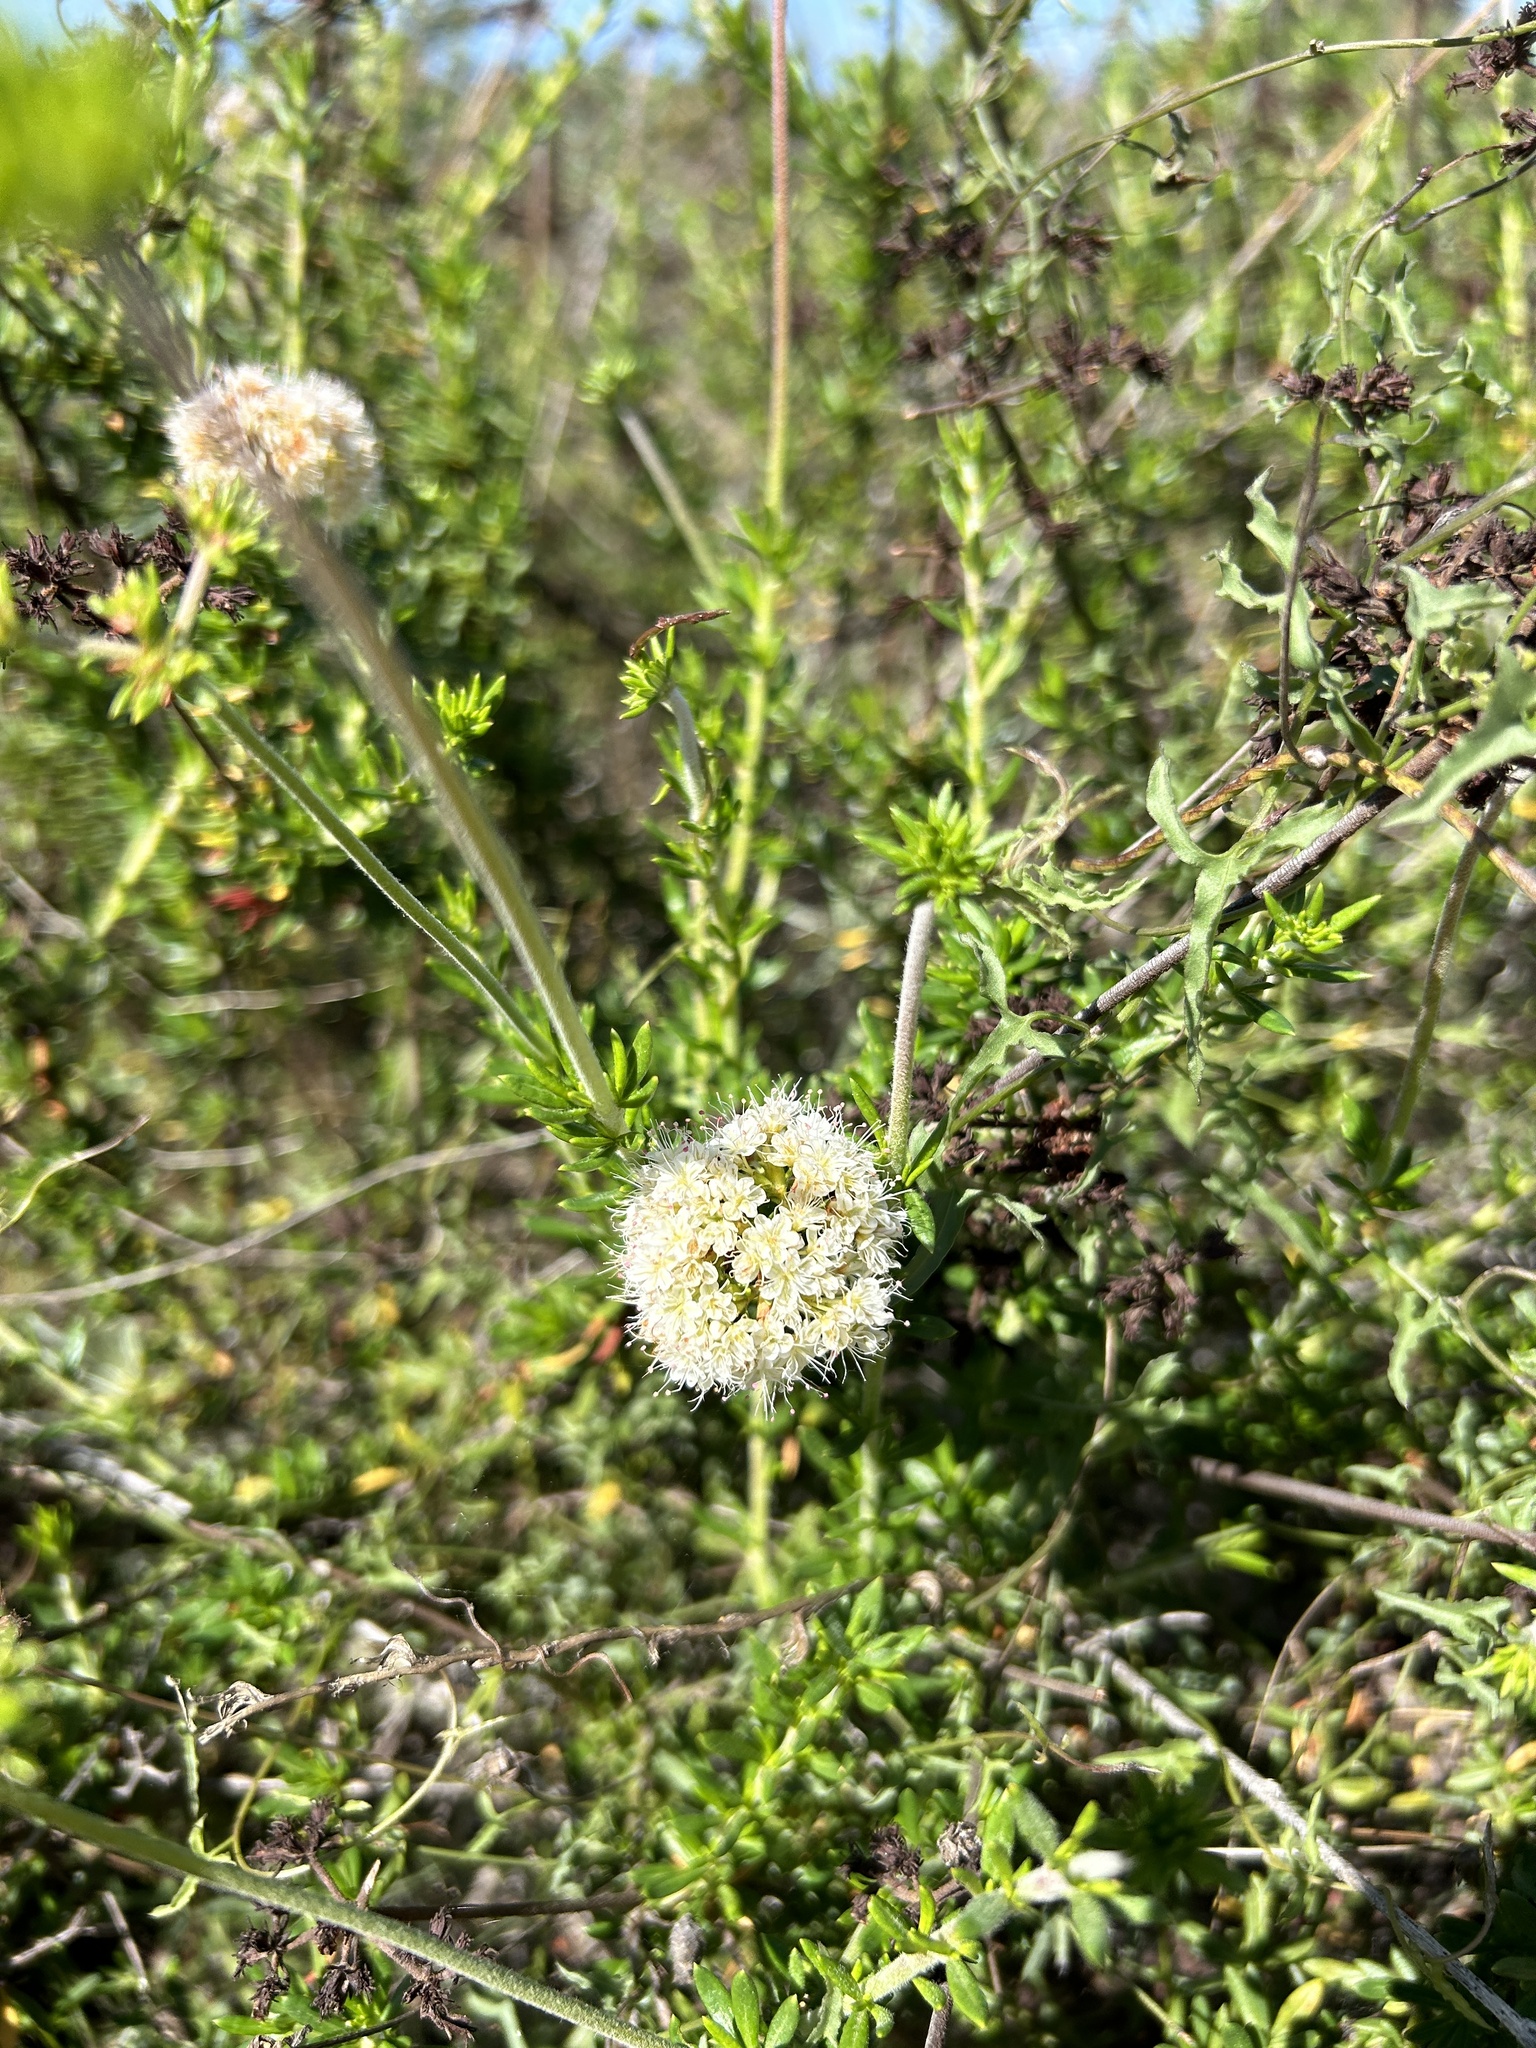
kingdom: Plantae
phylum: Tracheophyta
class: Magnoliopsida
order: Caryophyllales
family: Polygonaceae
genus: Eriogonum
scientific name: Eriogonum fasciculatum
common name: California wild buckwheat
